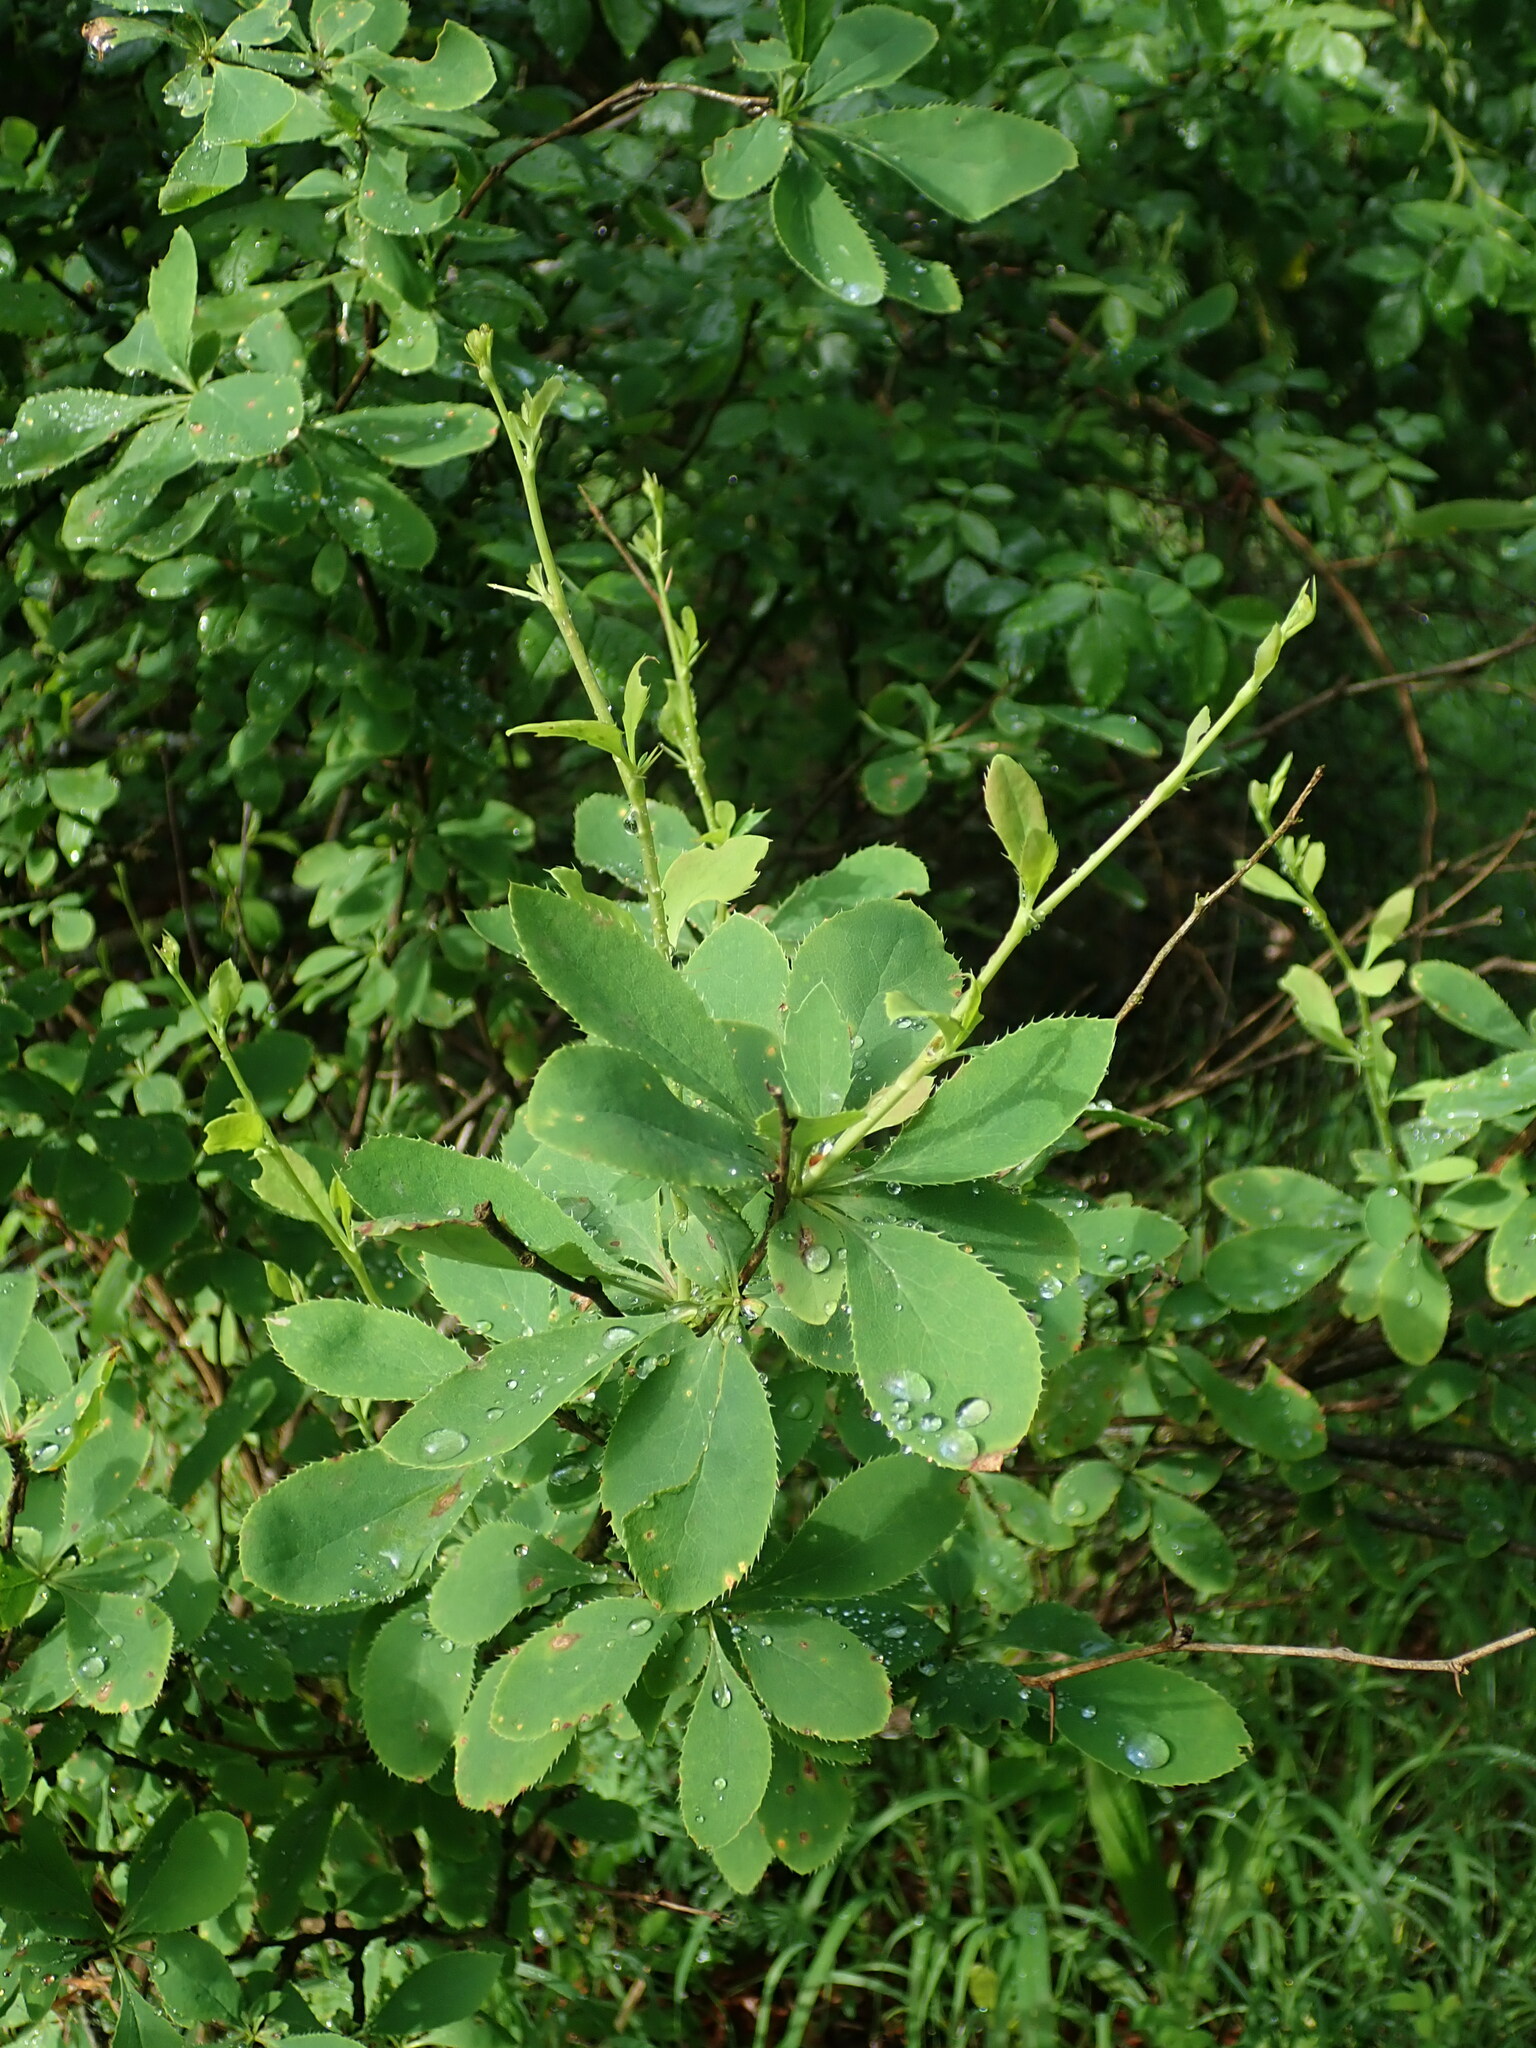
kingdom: Plantae
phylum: Tracheophyta
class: Magnoliopsida
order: Ranunculales
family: Berberidaceae
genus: Berberis
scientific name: Berberis vulgaris
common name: Barberry
